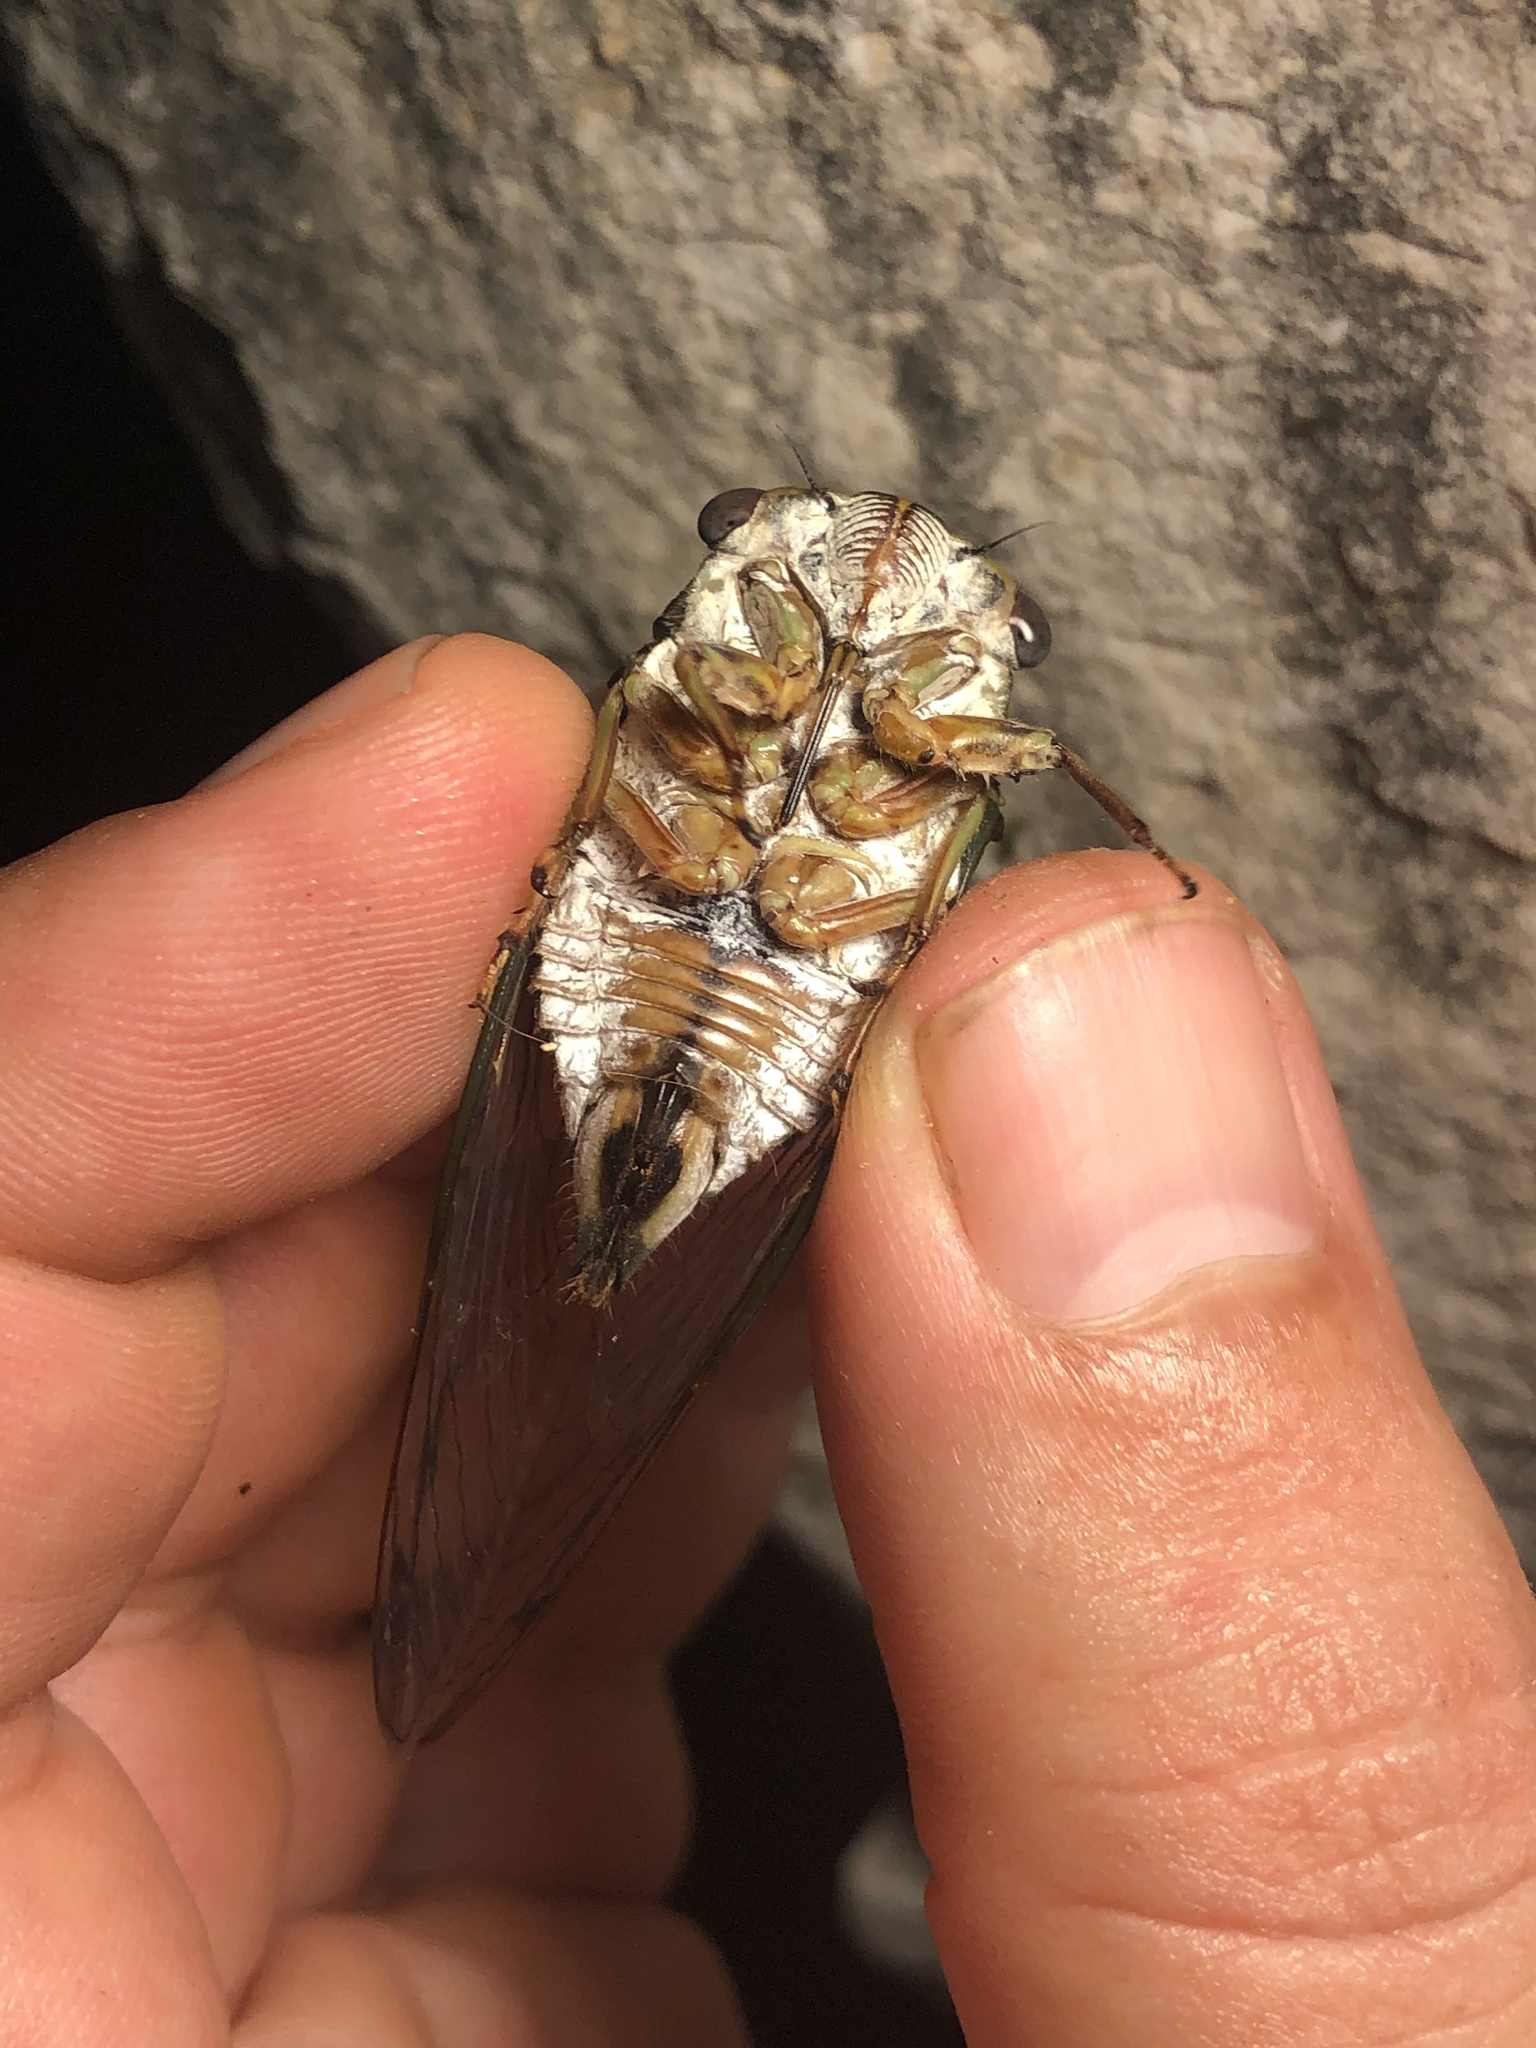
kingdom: Animalia
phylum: Arthropoda
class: Insecta
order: Hemiptera
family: Cicadidae
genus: Neotibicen
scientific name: Neotibicen pruinosus
